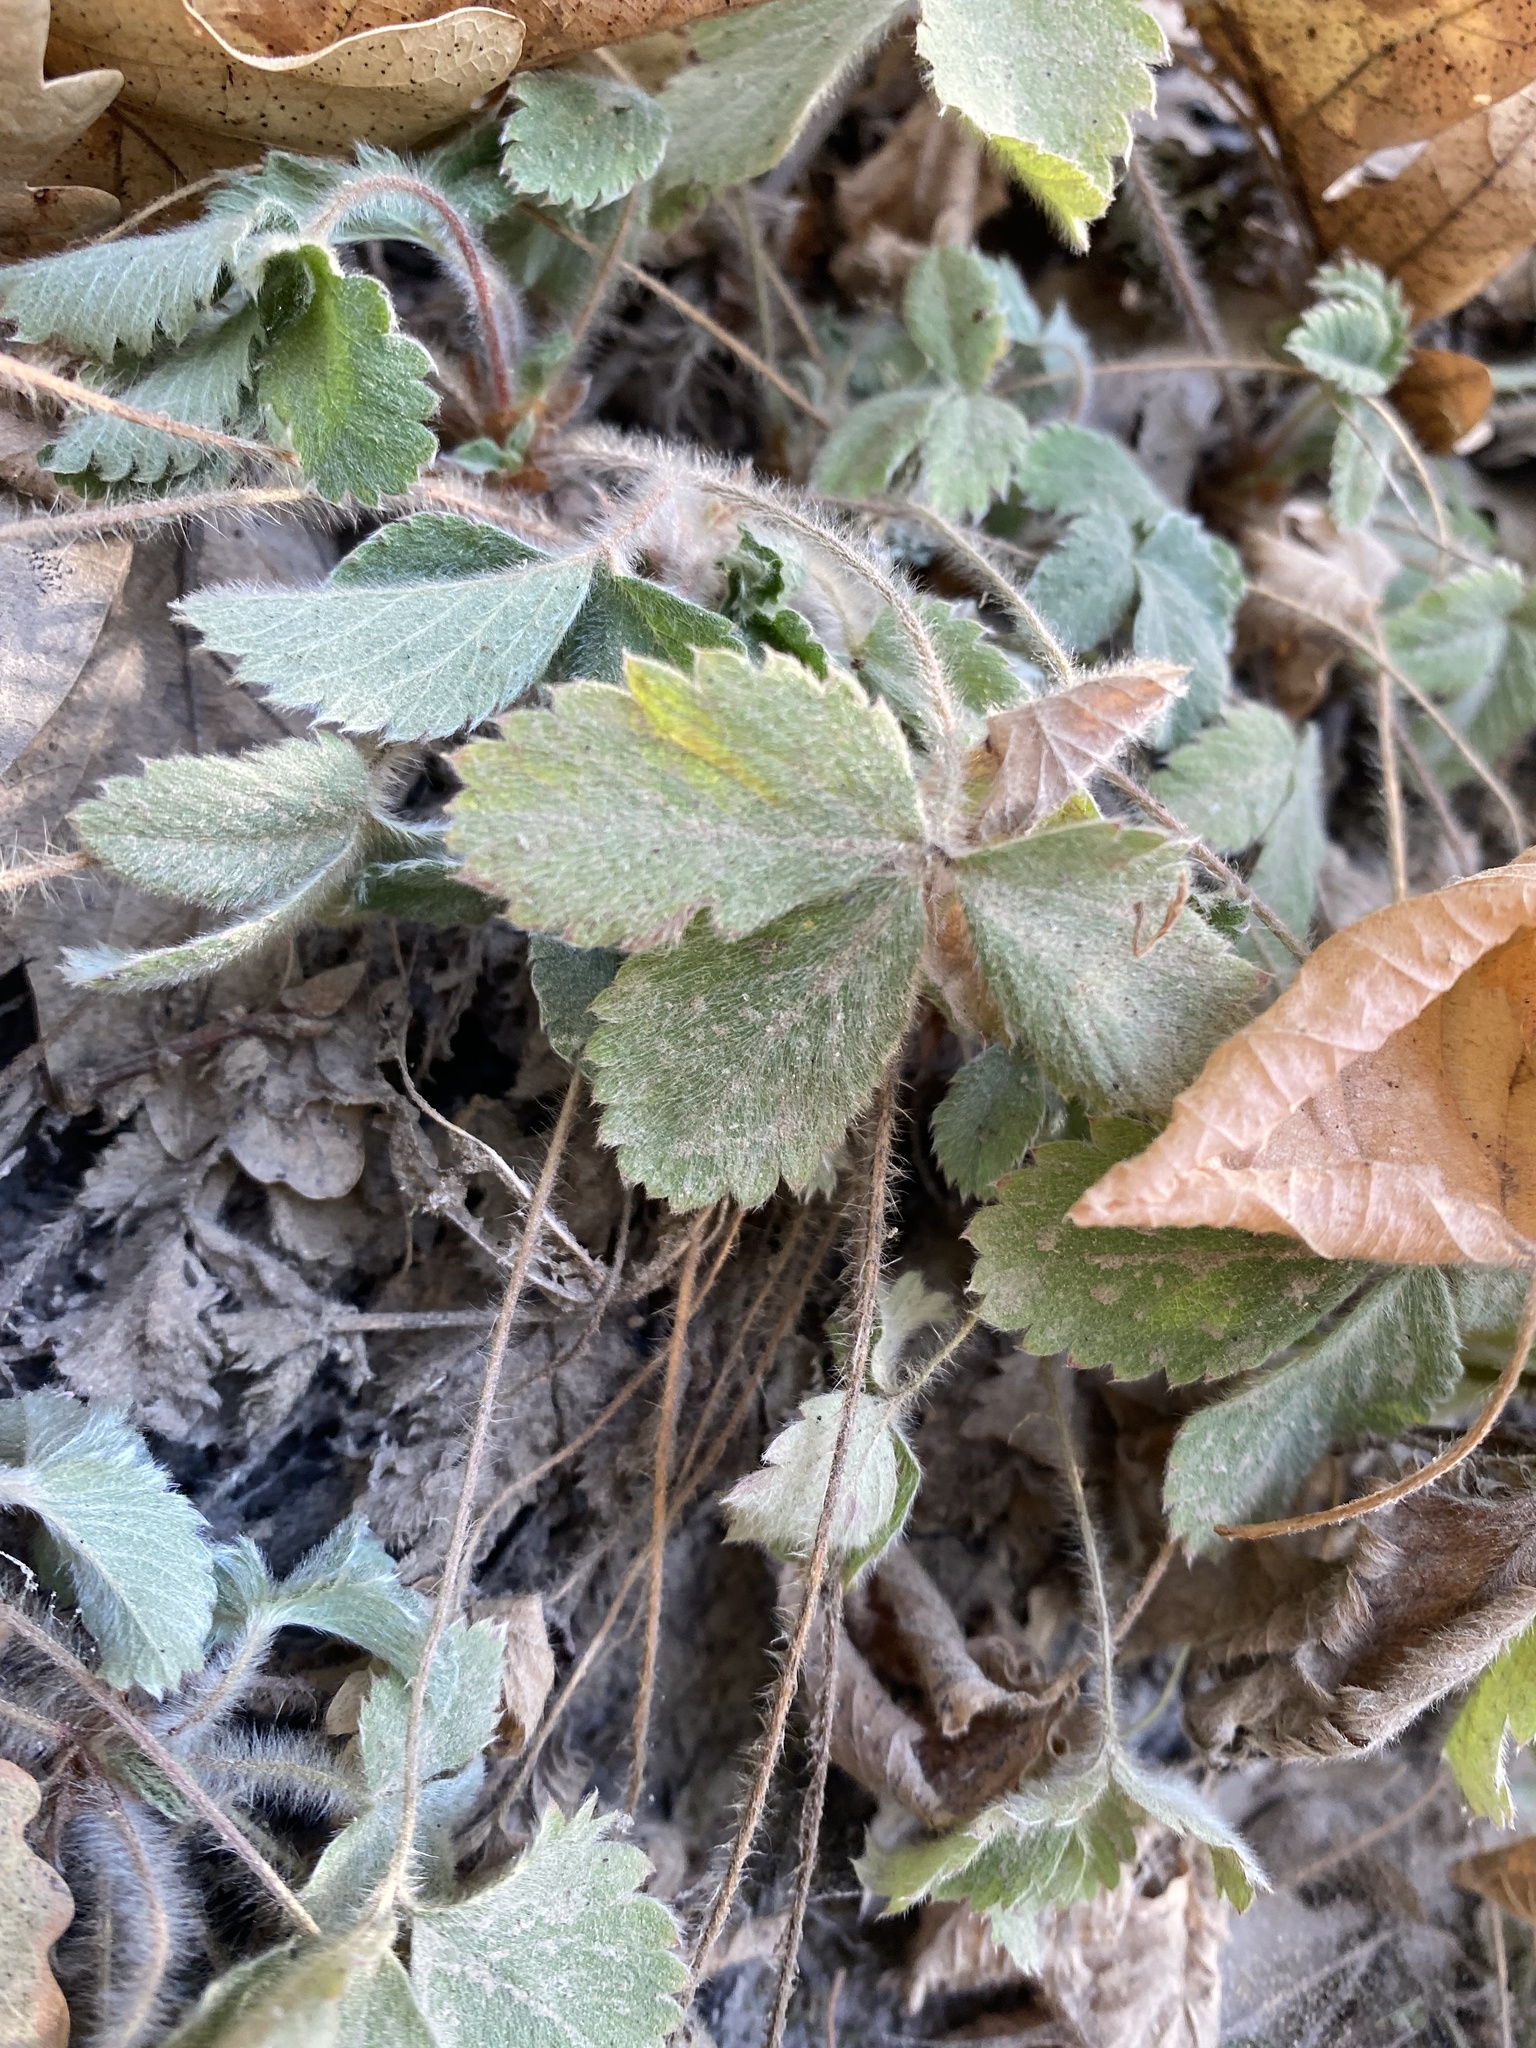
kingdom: Plantae
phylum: Tracheophyta
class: Magnoliopsida
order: Rosales
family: Rosaceae
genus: Potentilla
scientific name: Potentilla micrantha
